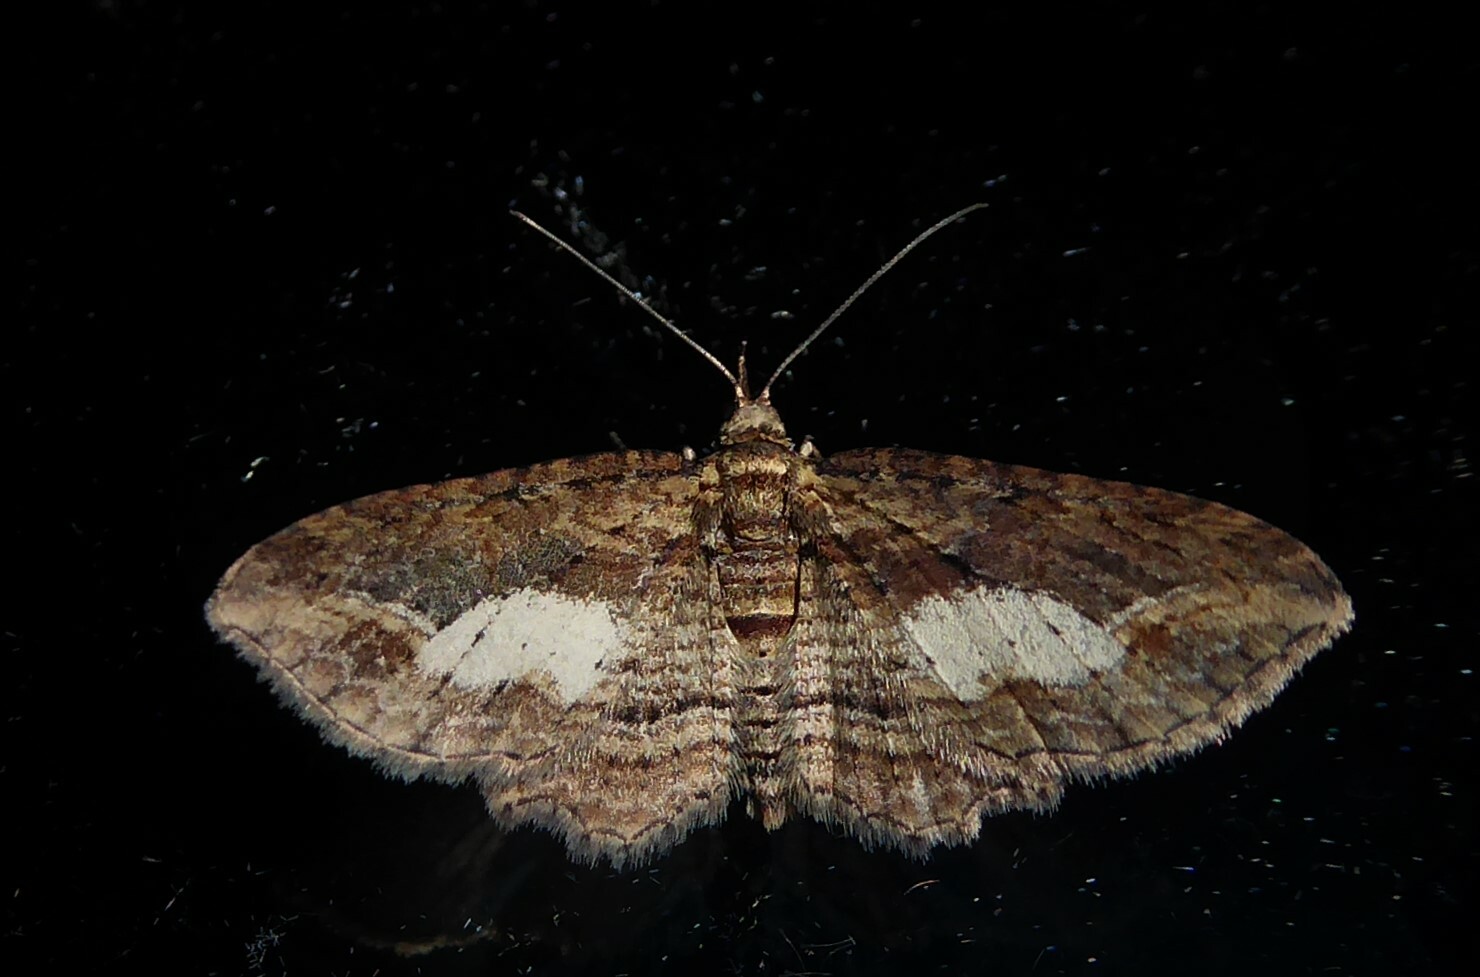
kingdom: Animalia
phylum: Arthropoda
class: Insecta
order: Lepidoptera
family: Geometridae
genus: Chloroclystis
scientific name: Chloroclystis filata
